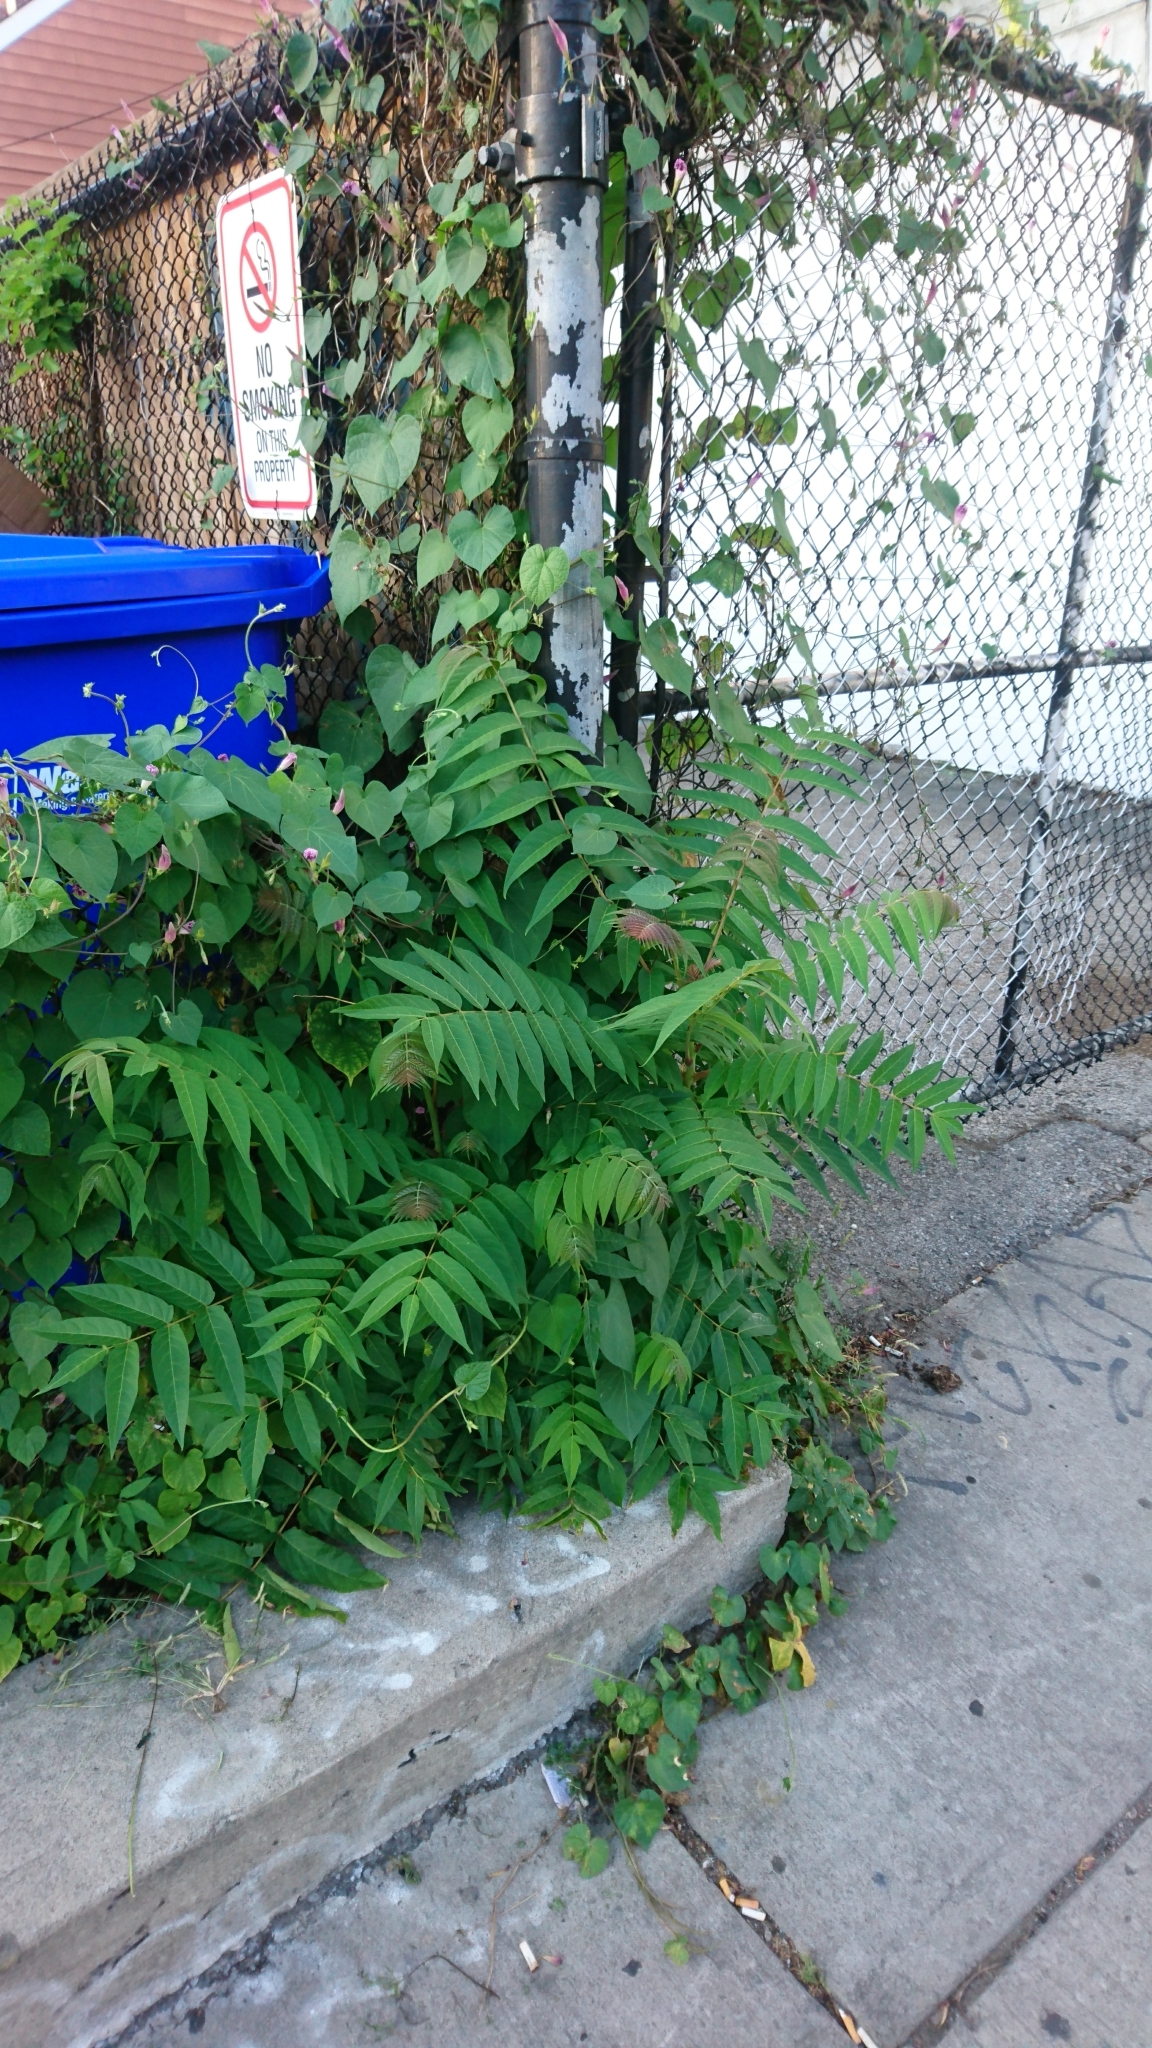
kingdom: Plantae
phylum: Tracheophyta
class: Magnoliopsida
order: Sapindales
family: Simaroubaceae
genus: Ailanthus
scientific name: Ailanthus altissima
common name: Tree-of-heaven
